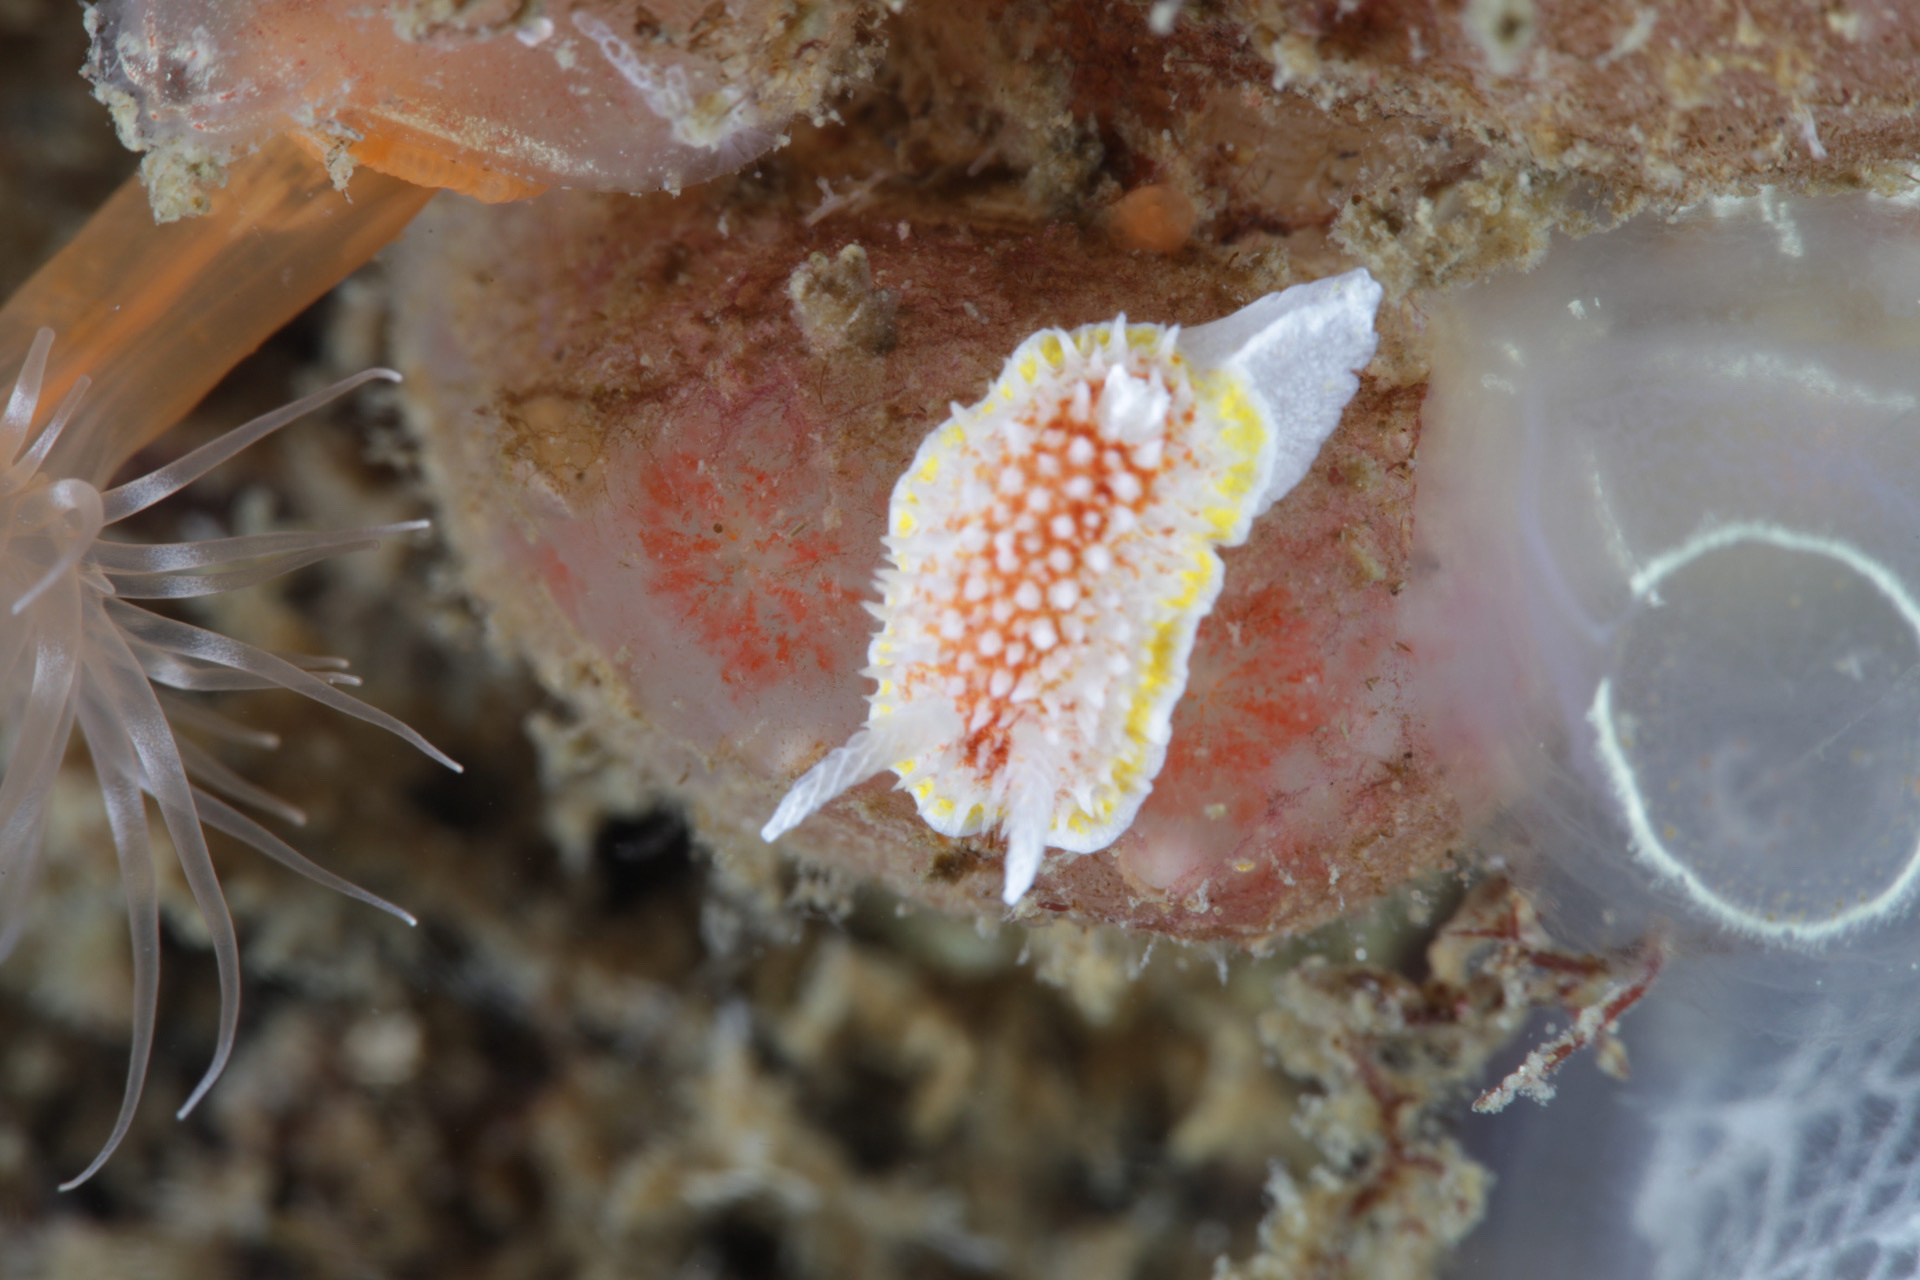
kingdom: Animalia
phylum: Mollusca
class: Gastropoda
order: Nudibranchia
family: Calycidorididae
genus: Diaphorodoris
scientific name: Diaphorodoris luteocincta
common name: Fried egg nudibranch
